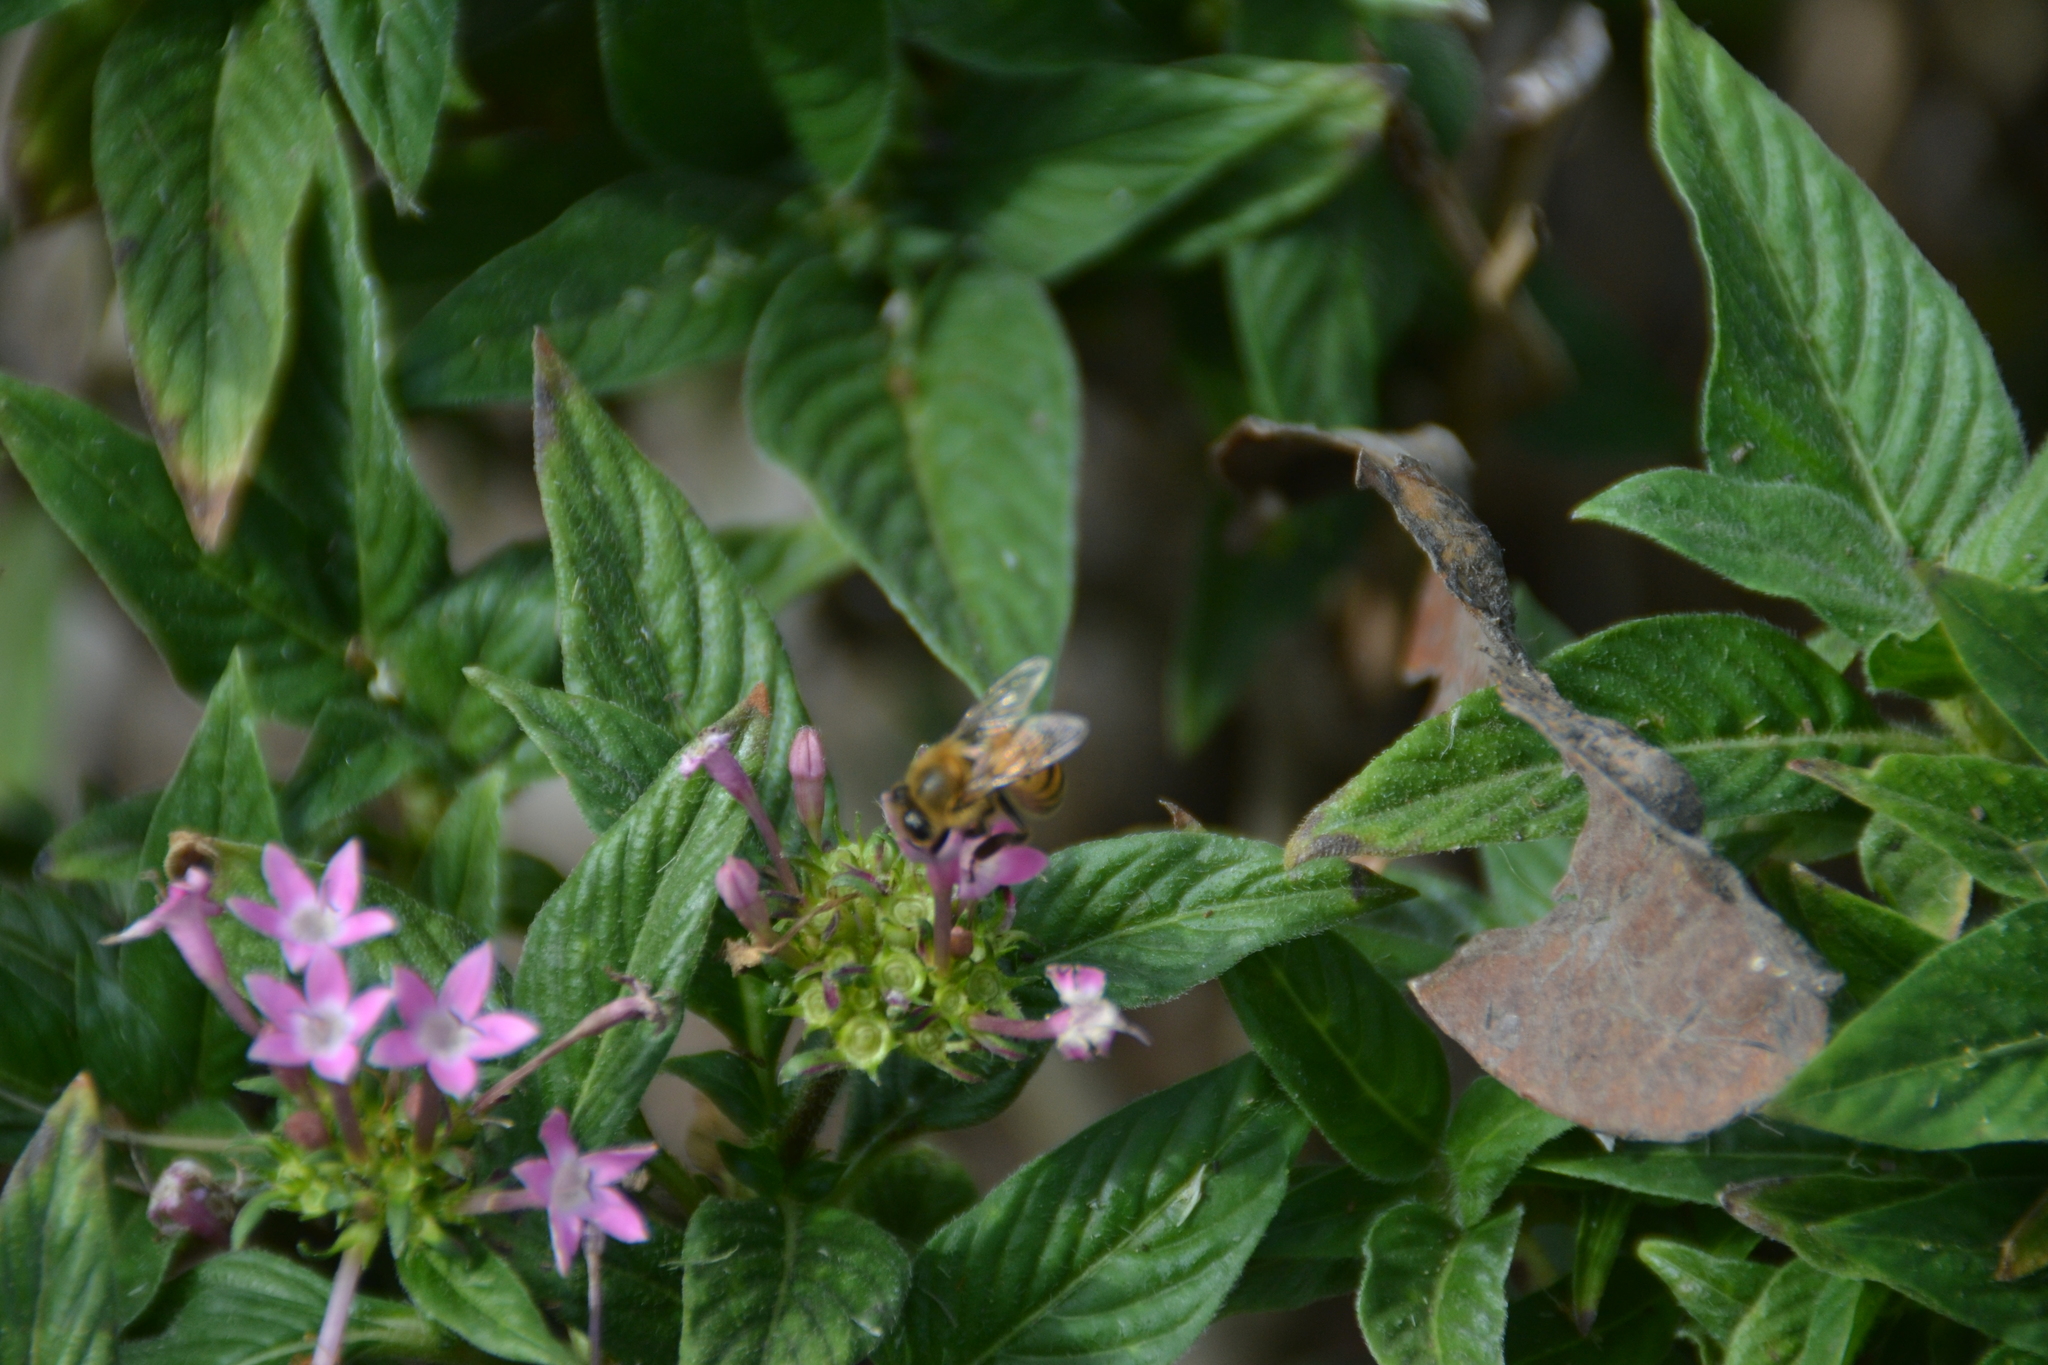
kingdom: Animalia
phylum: Arthropoda
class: Insecta
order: Hymenoptera
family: Apidae
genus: Apis
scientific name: Apis mellifera
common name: Honey bee
